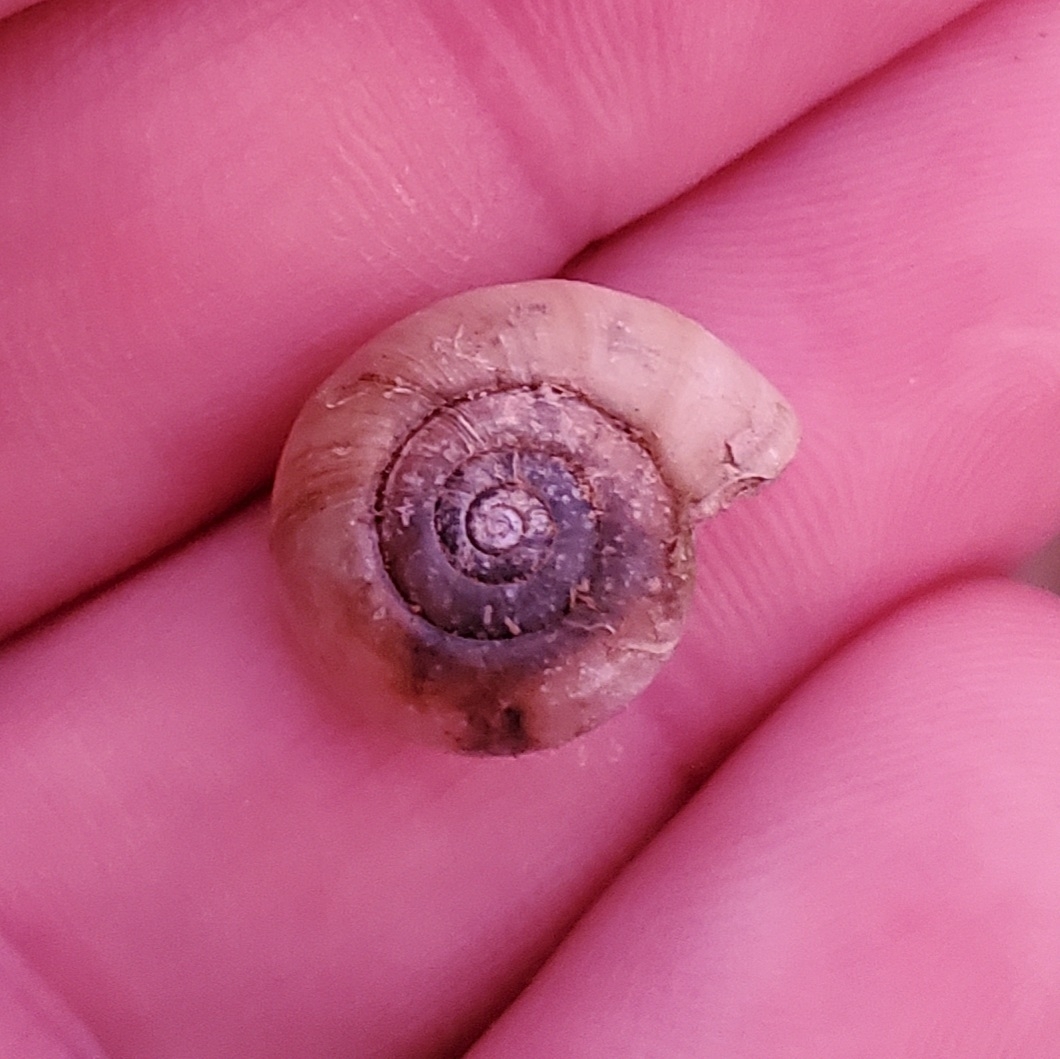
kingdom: Animalia
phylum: Mollusca
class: Gastropoda
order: Stylommatophora
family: Haplotrematidae
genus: Haplotrema
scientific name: Haplotrema concavum
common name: Gray-foot lancetooth
